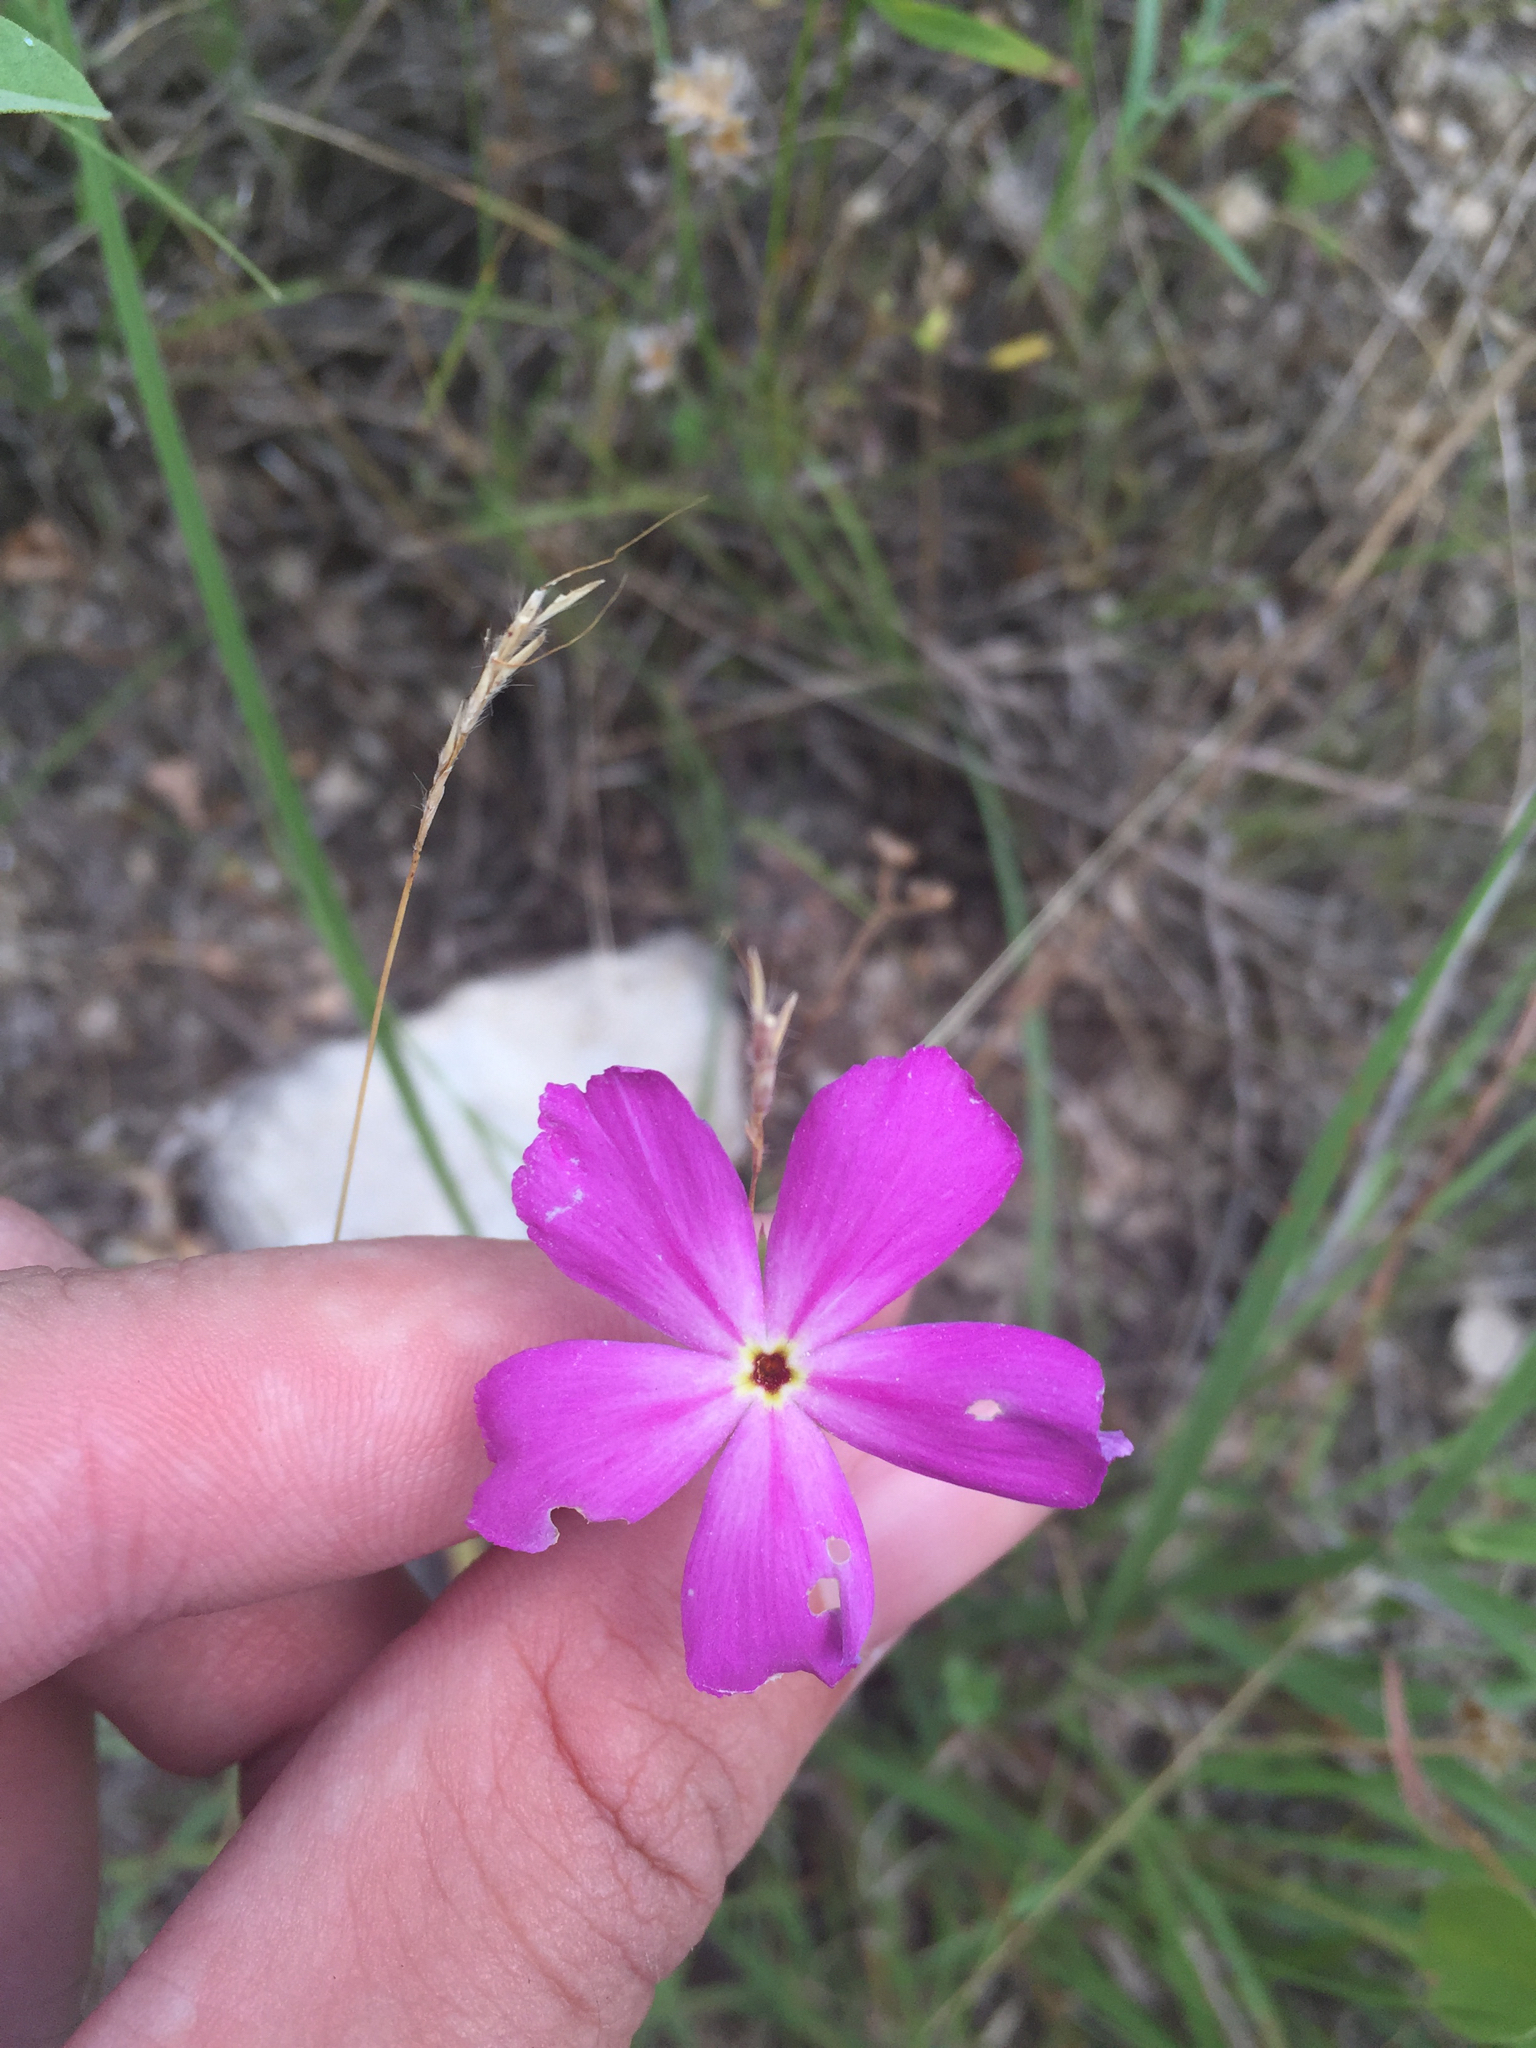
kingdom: Plantae
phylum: Tracheophyta
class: Magnoliopsida
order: Ericales
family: Polemoniaceae
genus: Phlox
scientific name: Phlox roemeriana
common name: Roemer's phlox
